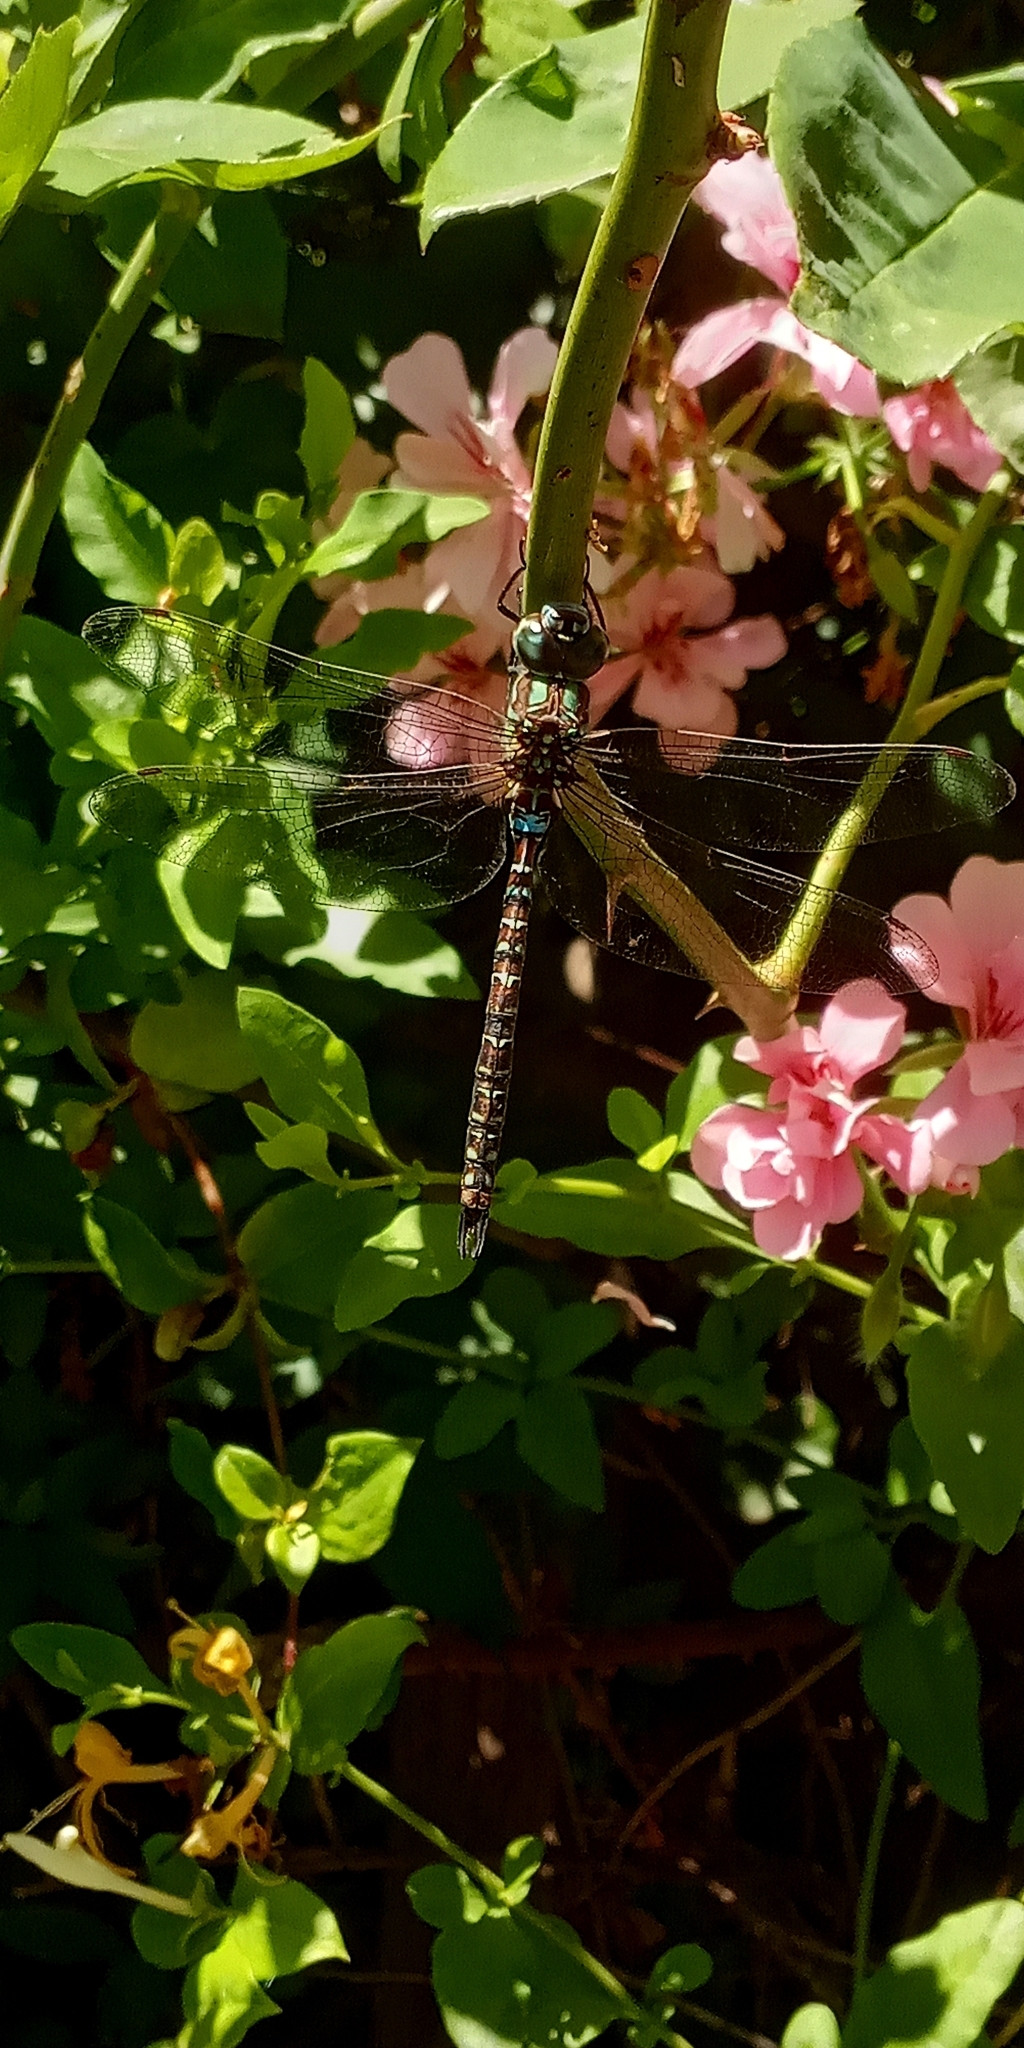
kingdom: Animalia
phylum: Arthropoda
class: Insecta
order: Odonata
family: Aeshnidae
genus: Rhionaeschna
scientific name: Rhionaeschna planaltica
